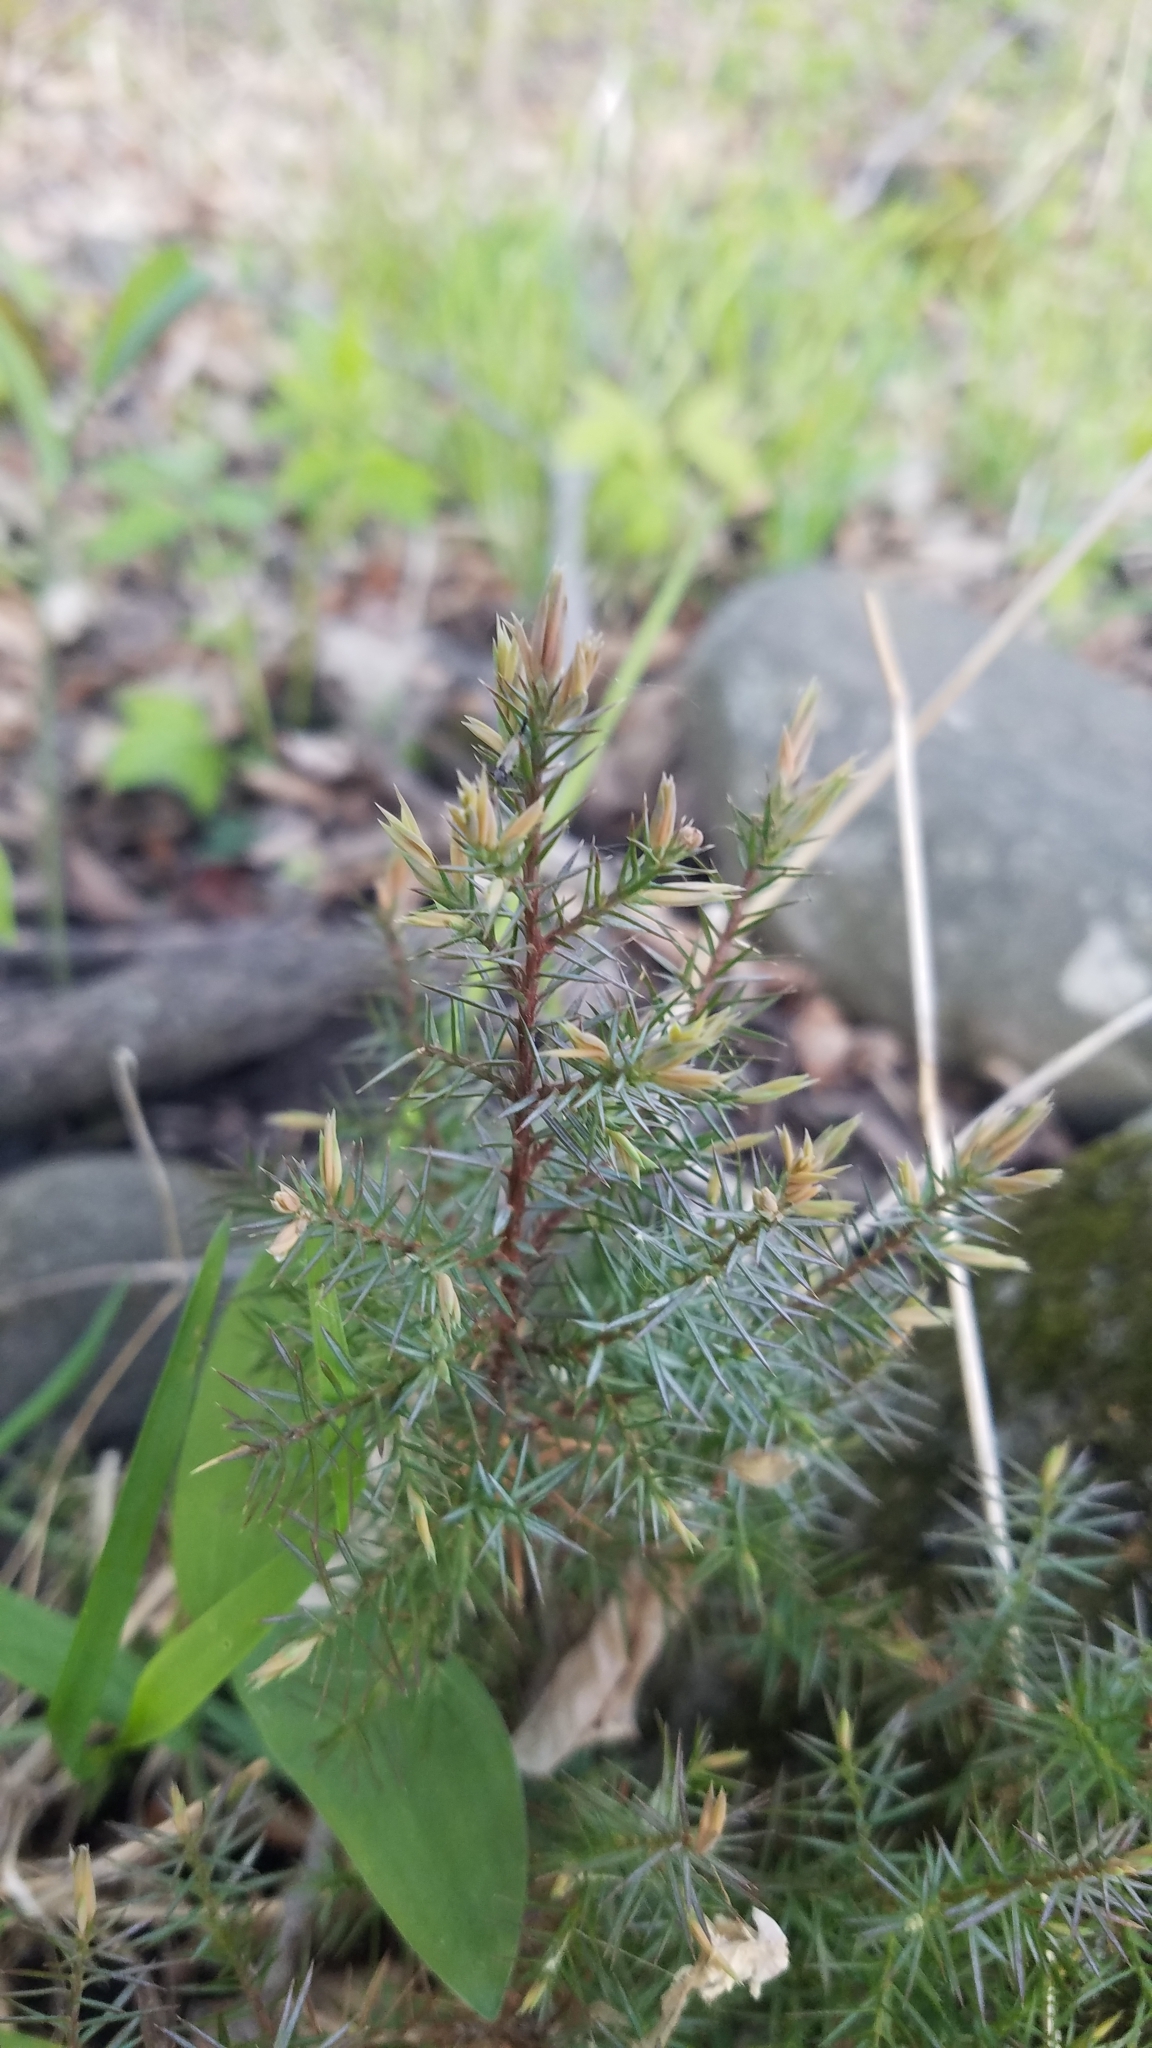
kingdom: Plantae
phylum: Tracheophyta
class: Pinopsida
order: Pinales
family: Cupressaceae
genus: Juniperus
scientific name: Juniperus virginiana
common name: Red juniper
